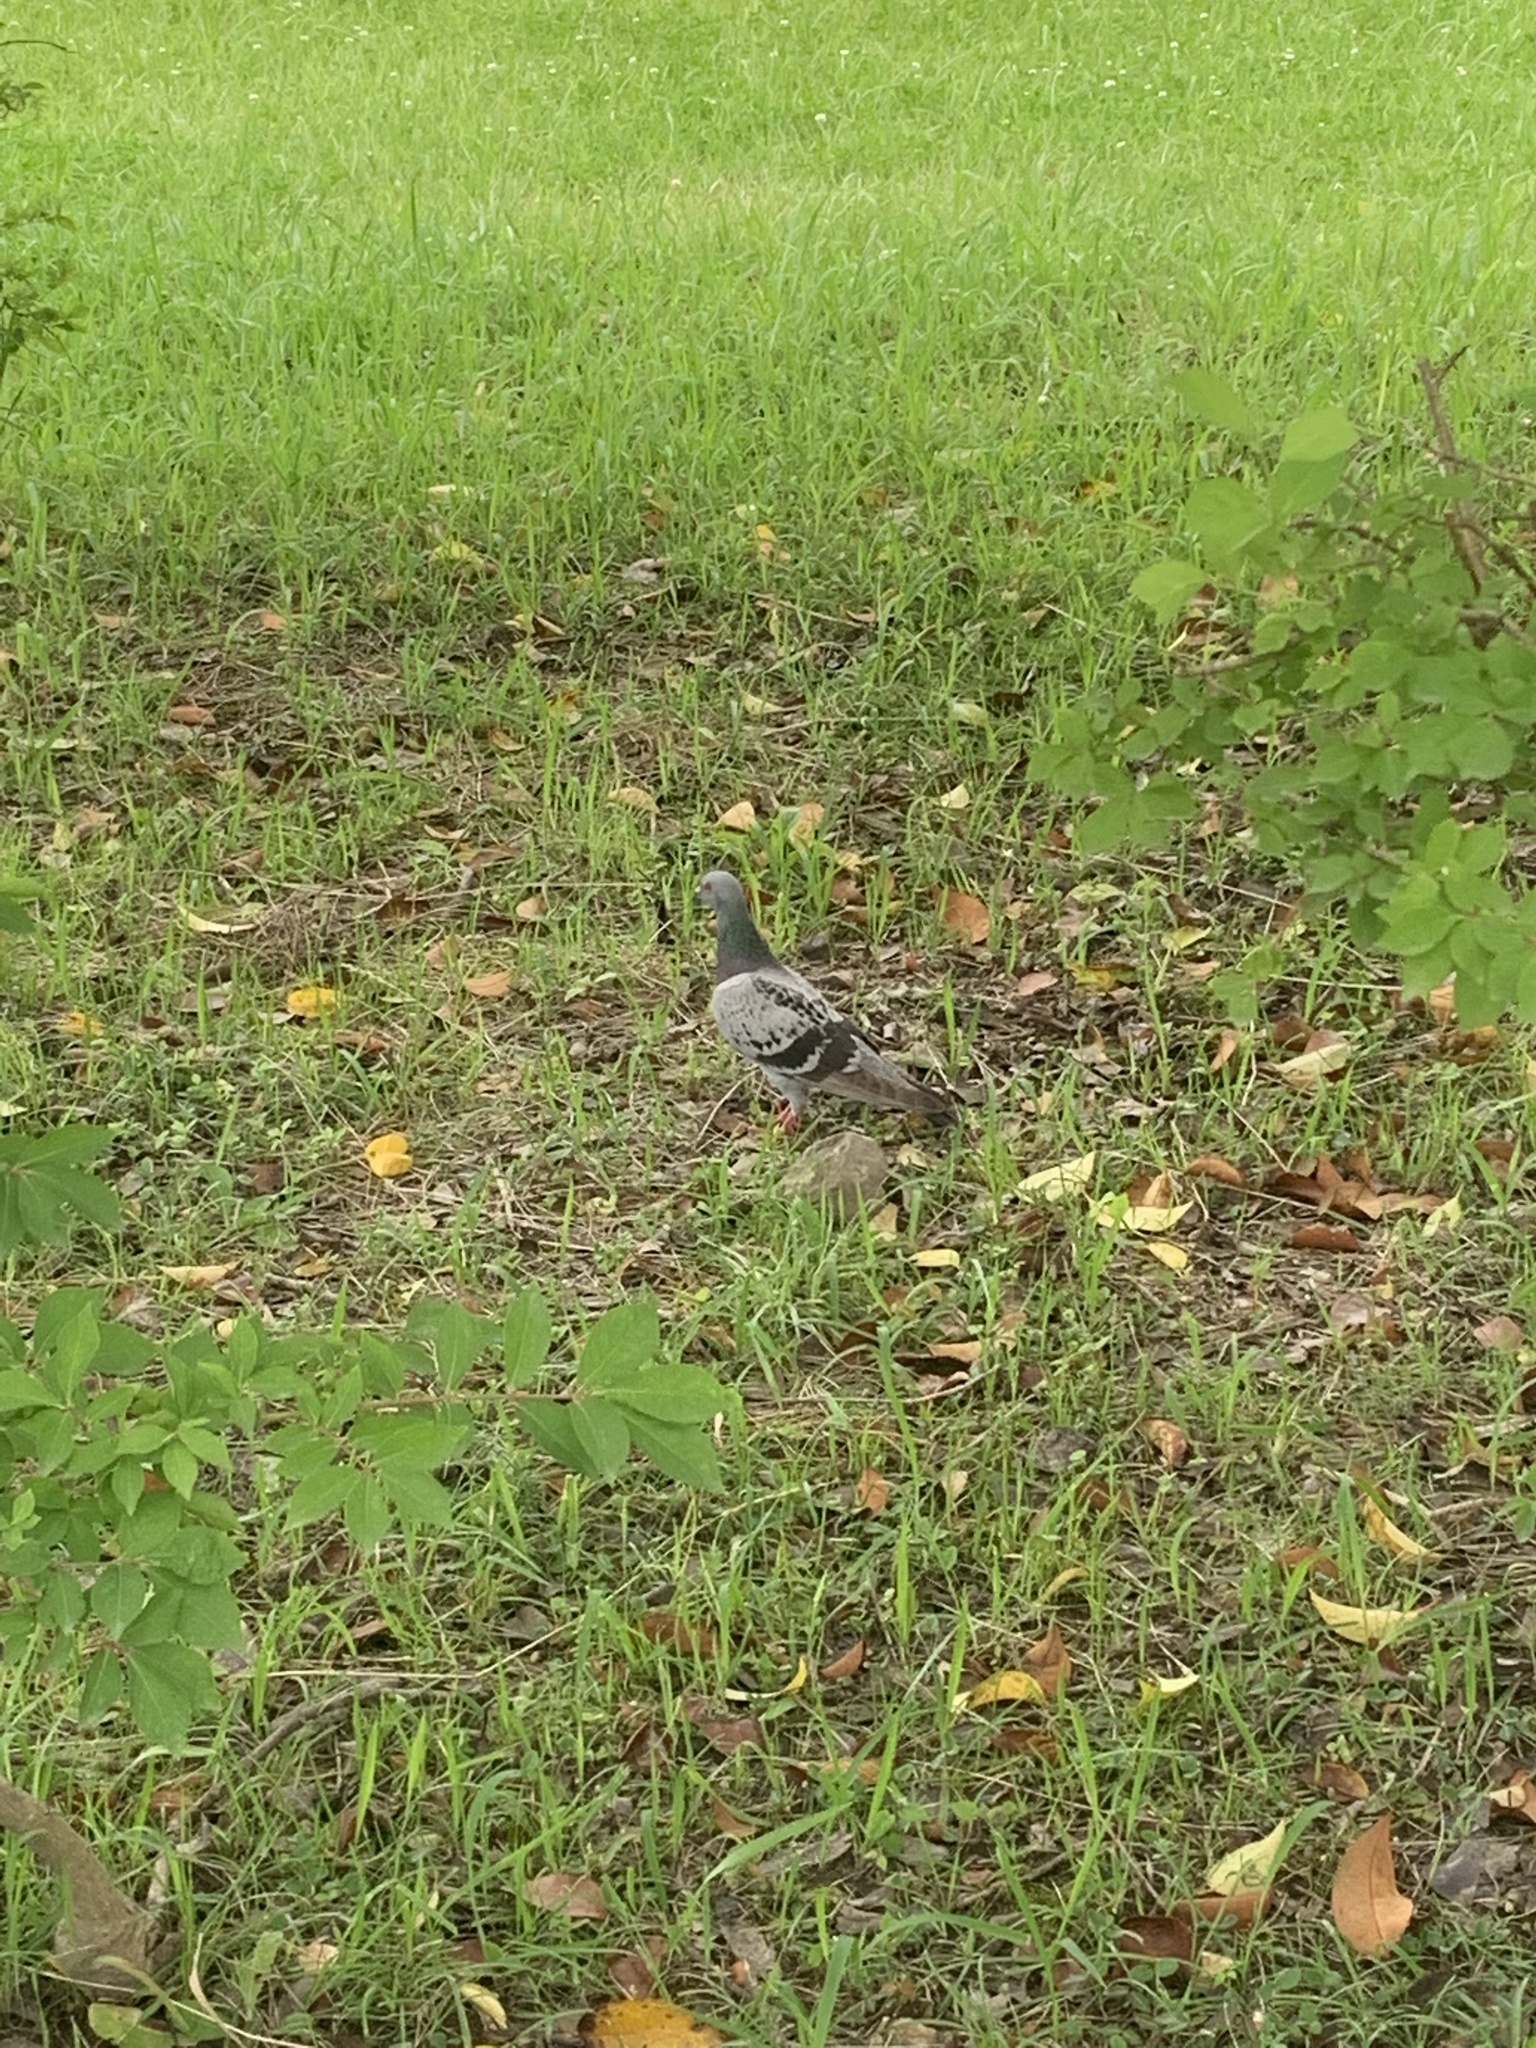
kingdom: Animalia
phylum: Chordata
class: Aves
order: Columbiformes
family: Columbidae
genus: Columba
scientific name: Columba livia
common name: Rock pigeon
